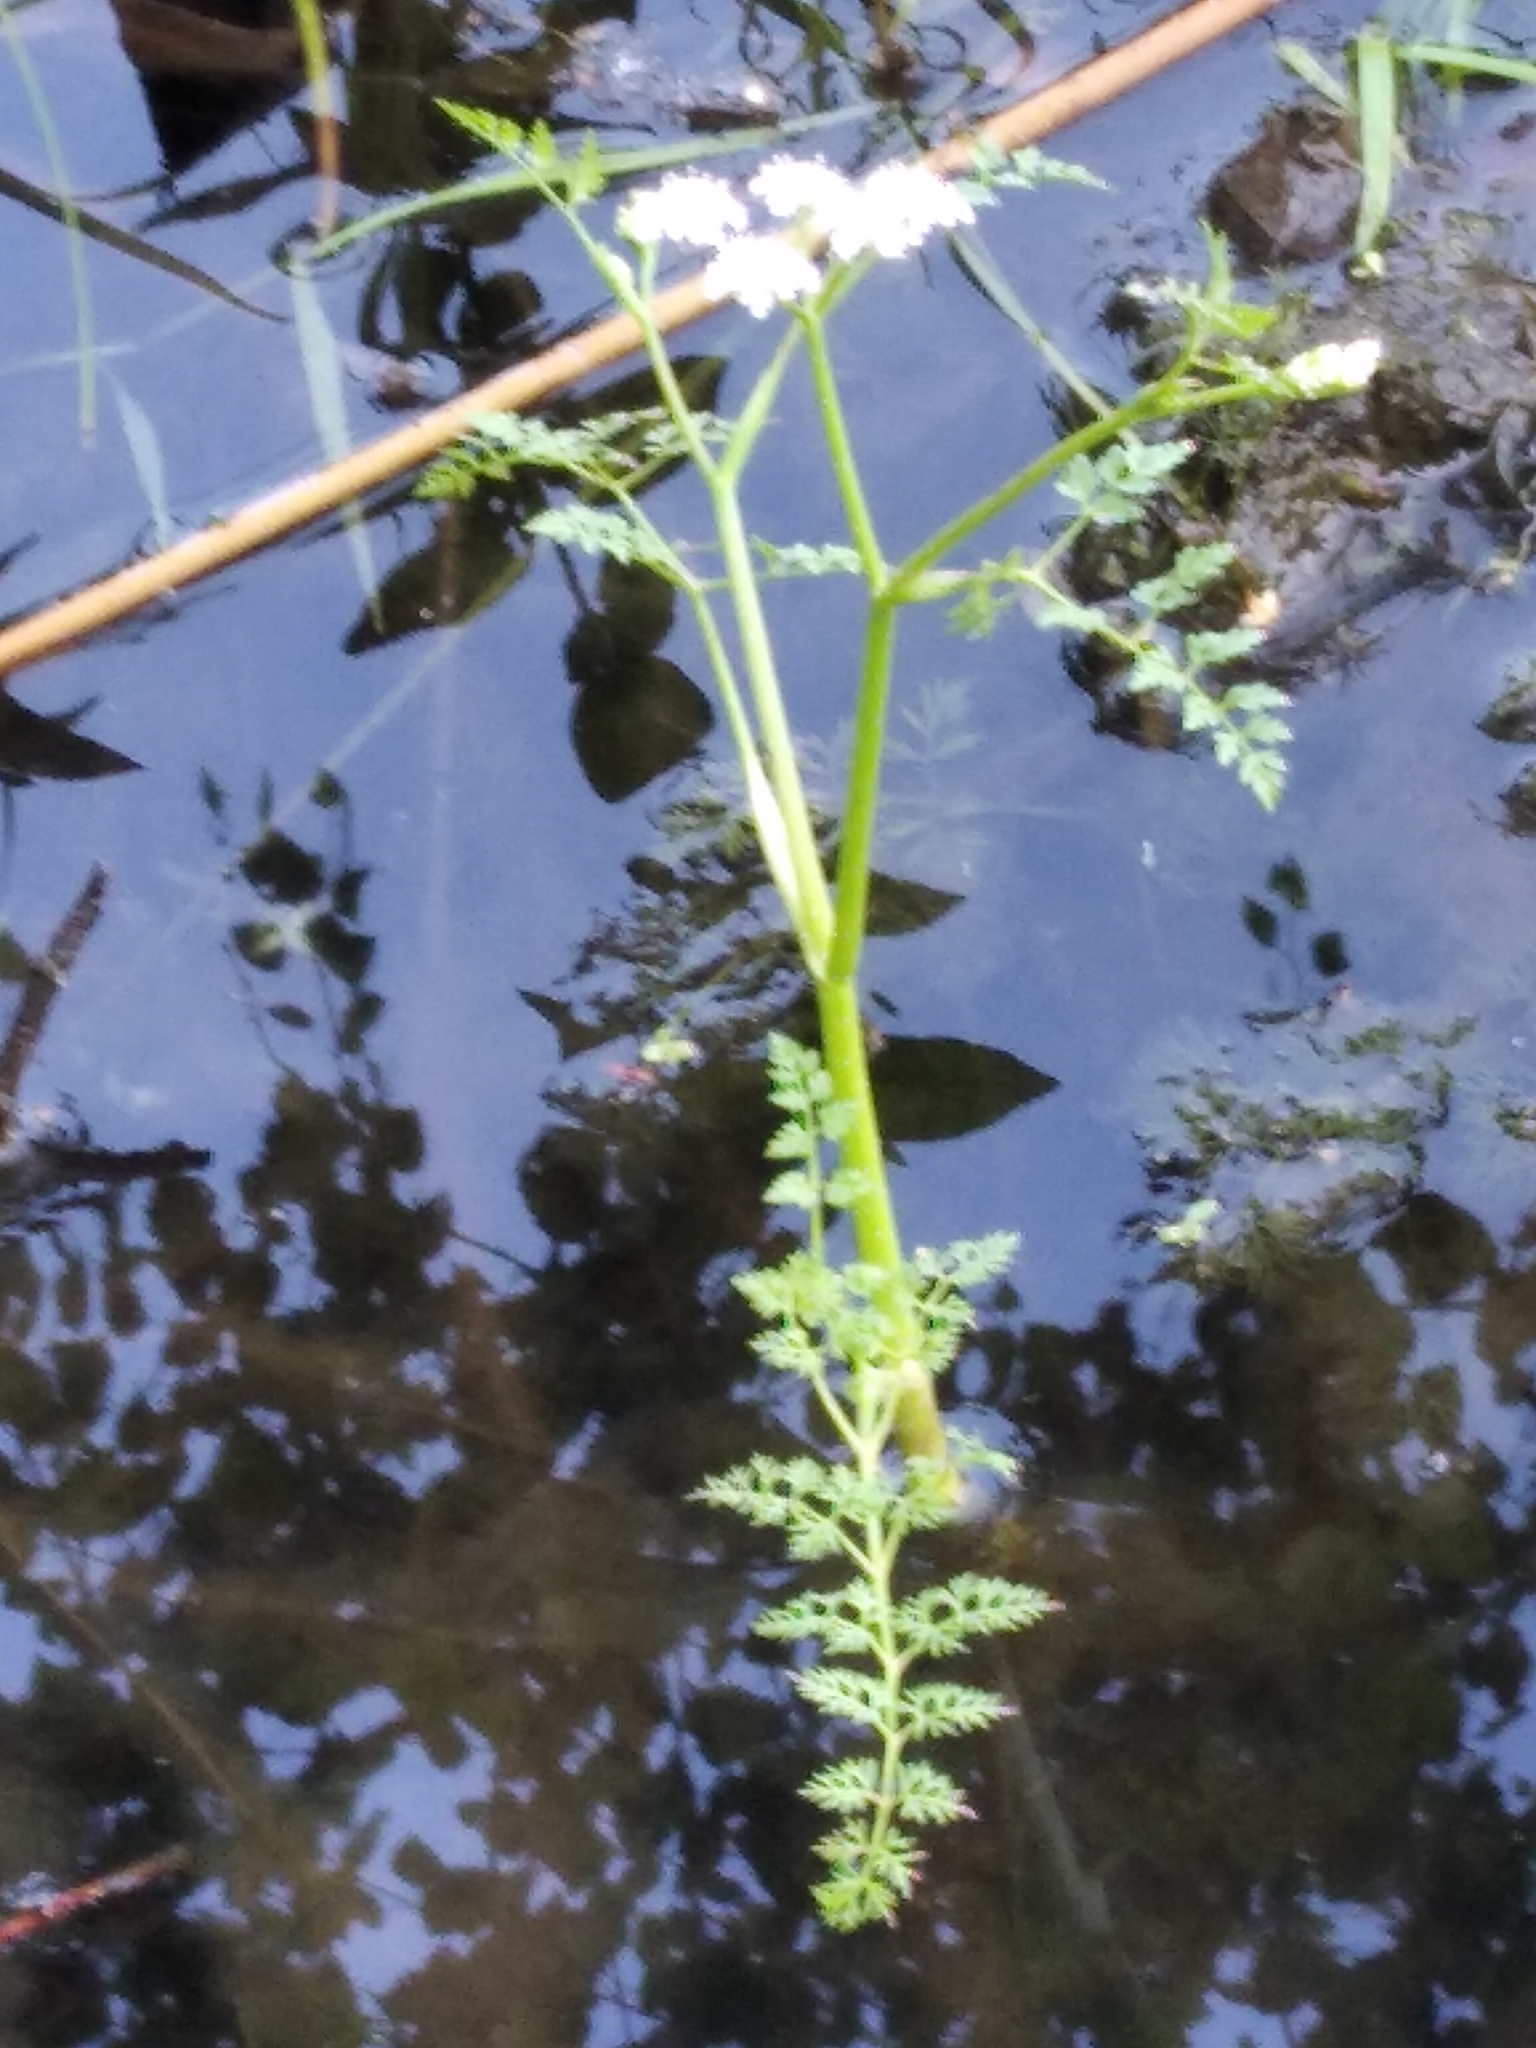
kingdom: Plantae
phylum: Tracheophyta
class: Magnoliopsida
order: Apiales
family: Apiaceae
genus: Oenanthe
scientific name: Oenanthe aquatica
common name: Fine-leaved water-dropwort
